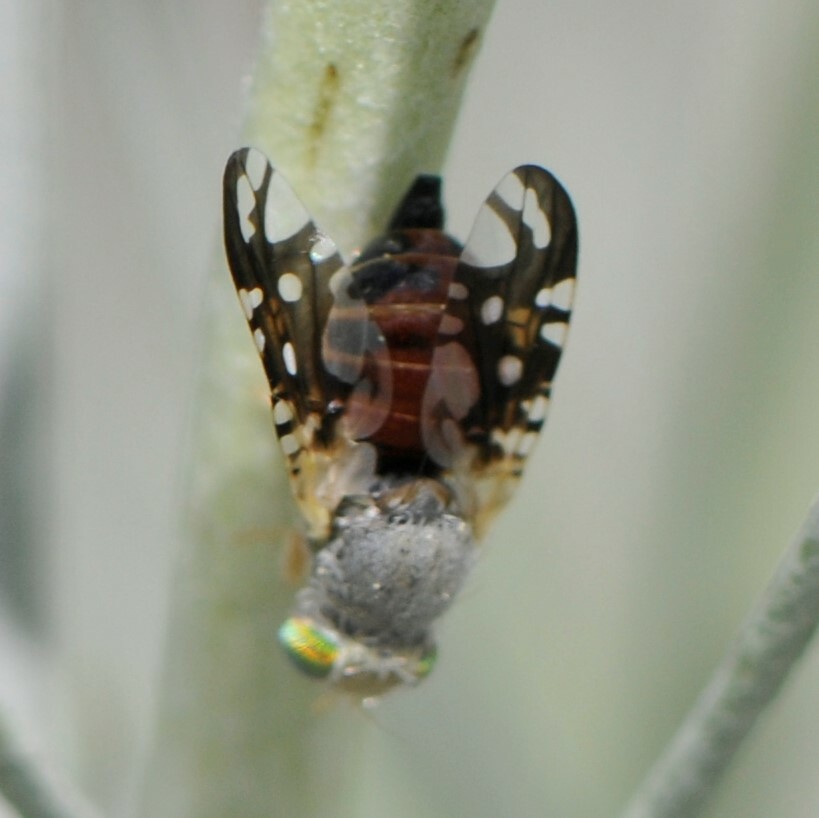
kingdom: Animalia
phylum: Arthropoda
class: Insecta
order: Diptera
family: Tephritidae
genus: Aciurina
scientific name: Aciurina trixa
